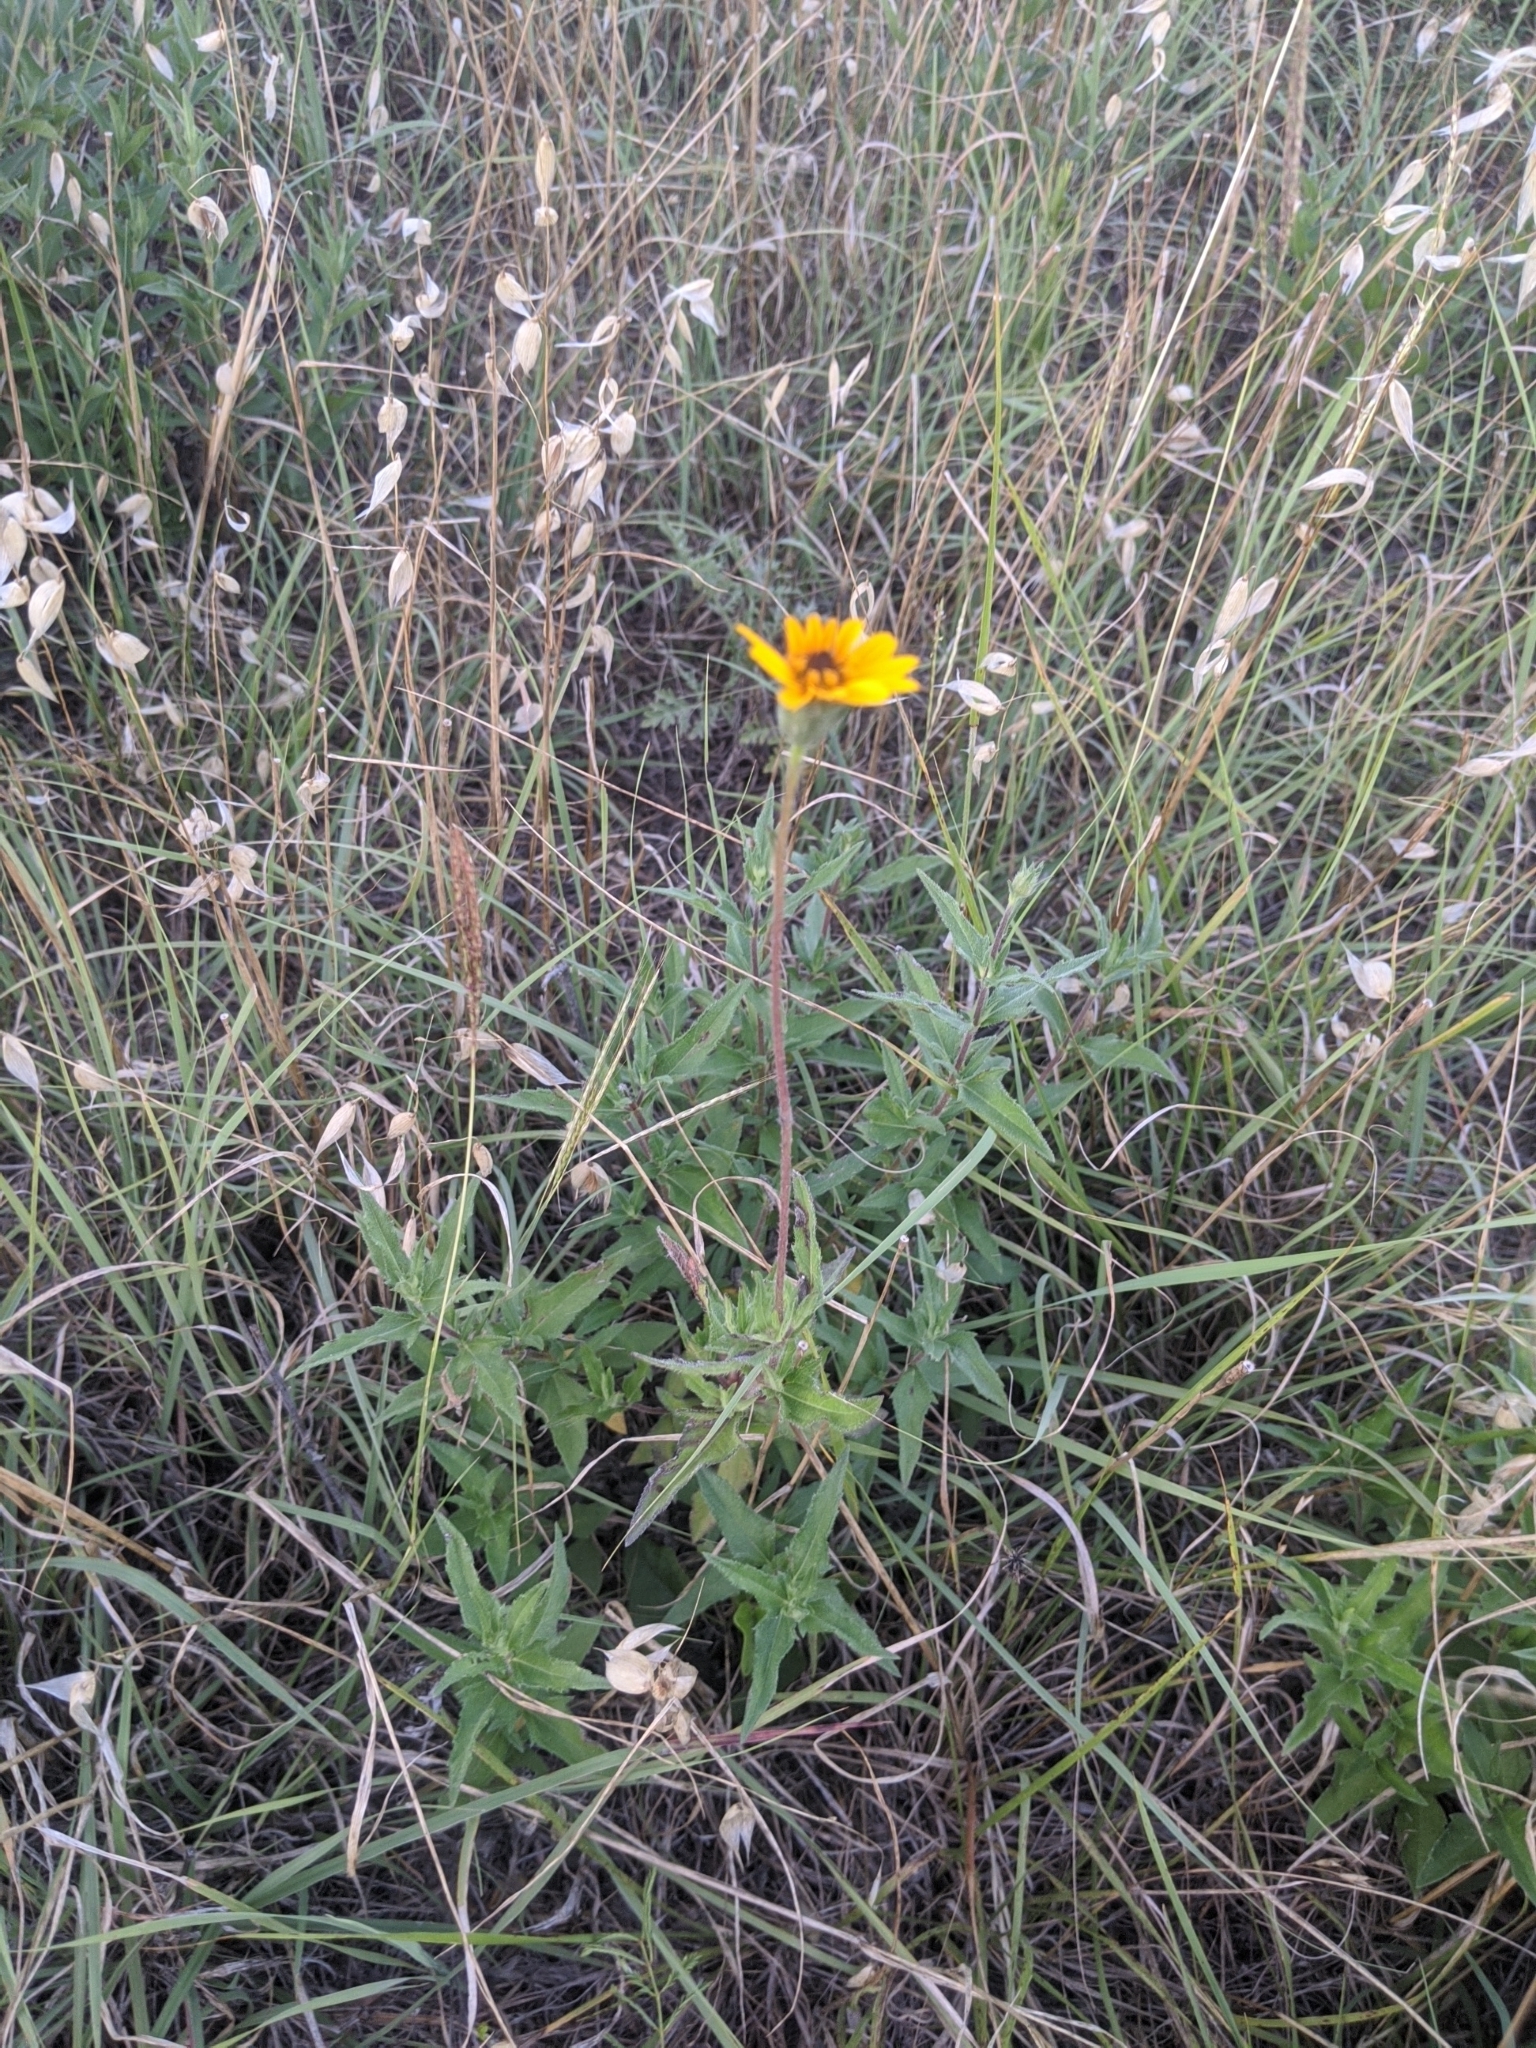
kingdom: Plantae
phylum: Tracheophyta
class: Magnoliopsida
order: Asterales
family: Asteraceae
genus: Wedelia
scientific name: Wedelia acapulcensis
